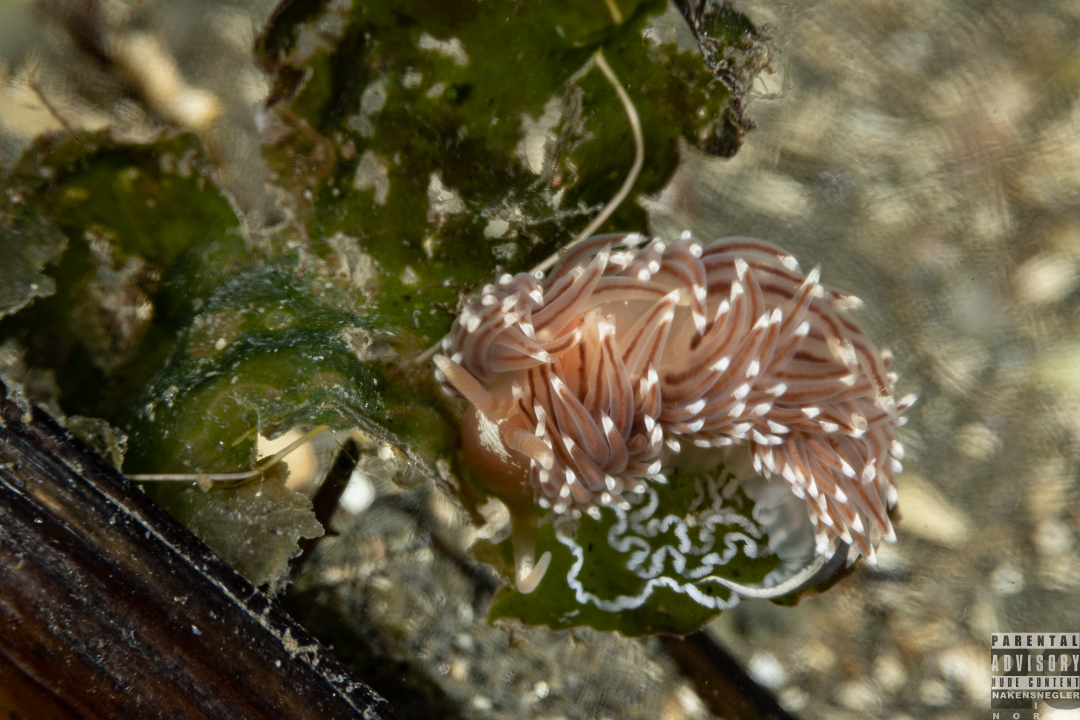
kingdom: Animalia
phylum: Mollusca
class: Gastropoda
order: Nudibranchia
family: Facelinidae
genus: Facelina
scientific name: Facelina bostoniensis
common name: Boston facelina
